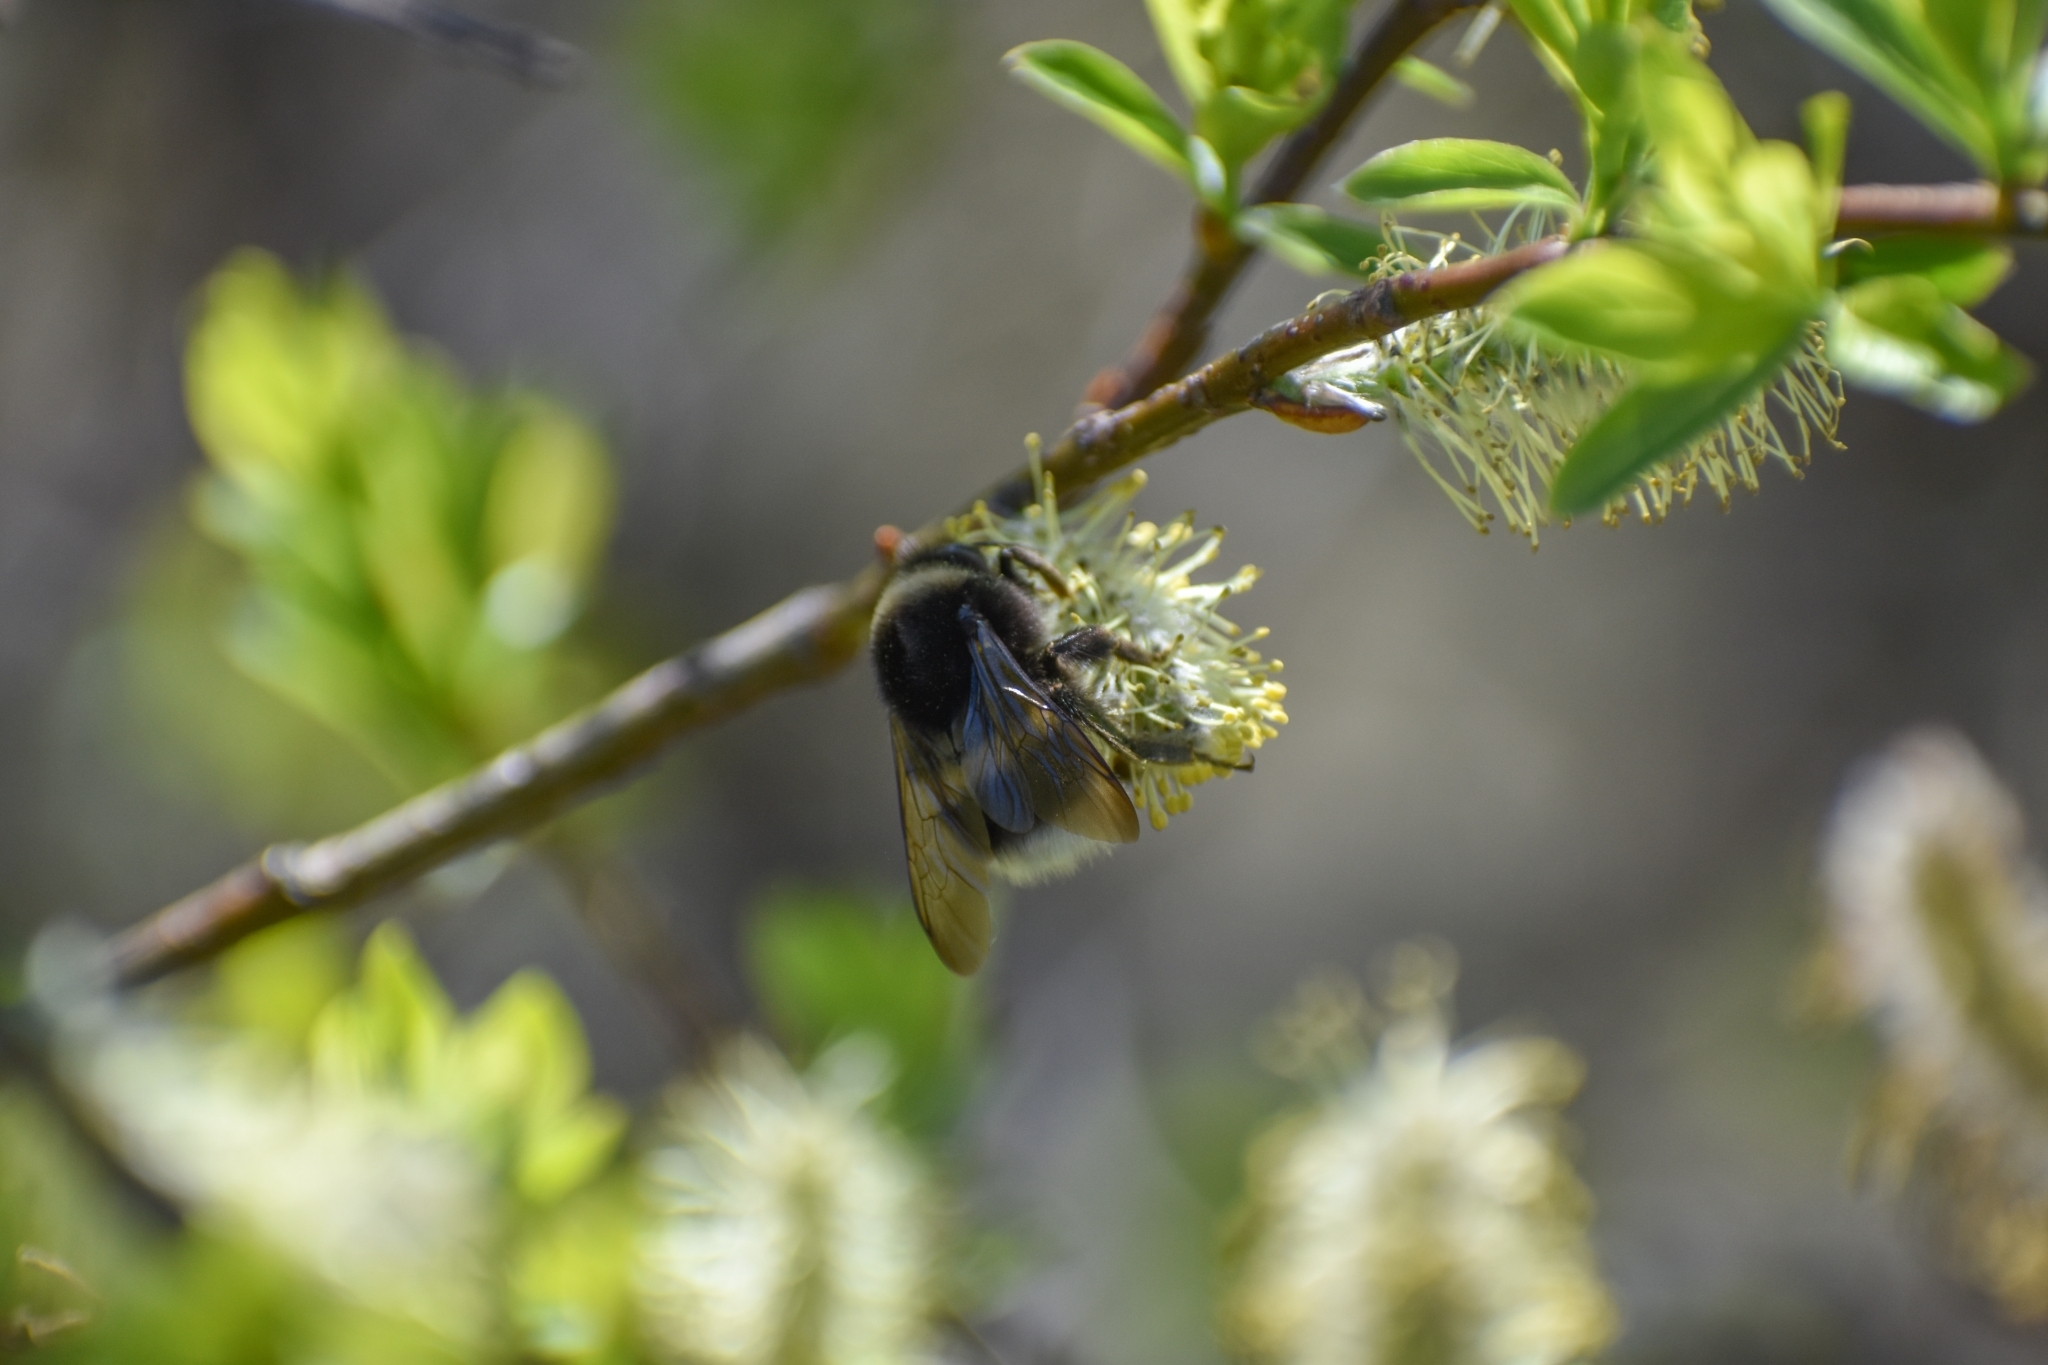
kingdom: Animalia
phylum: Arthropoda
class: Insecta
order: Hymenoptera
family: Apidae
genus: Bombus
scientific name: Bombus cryptarum
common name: Cryptic bumblebee
